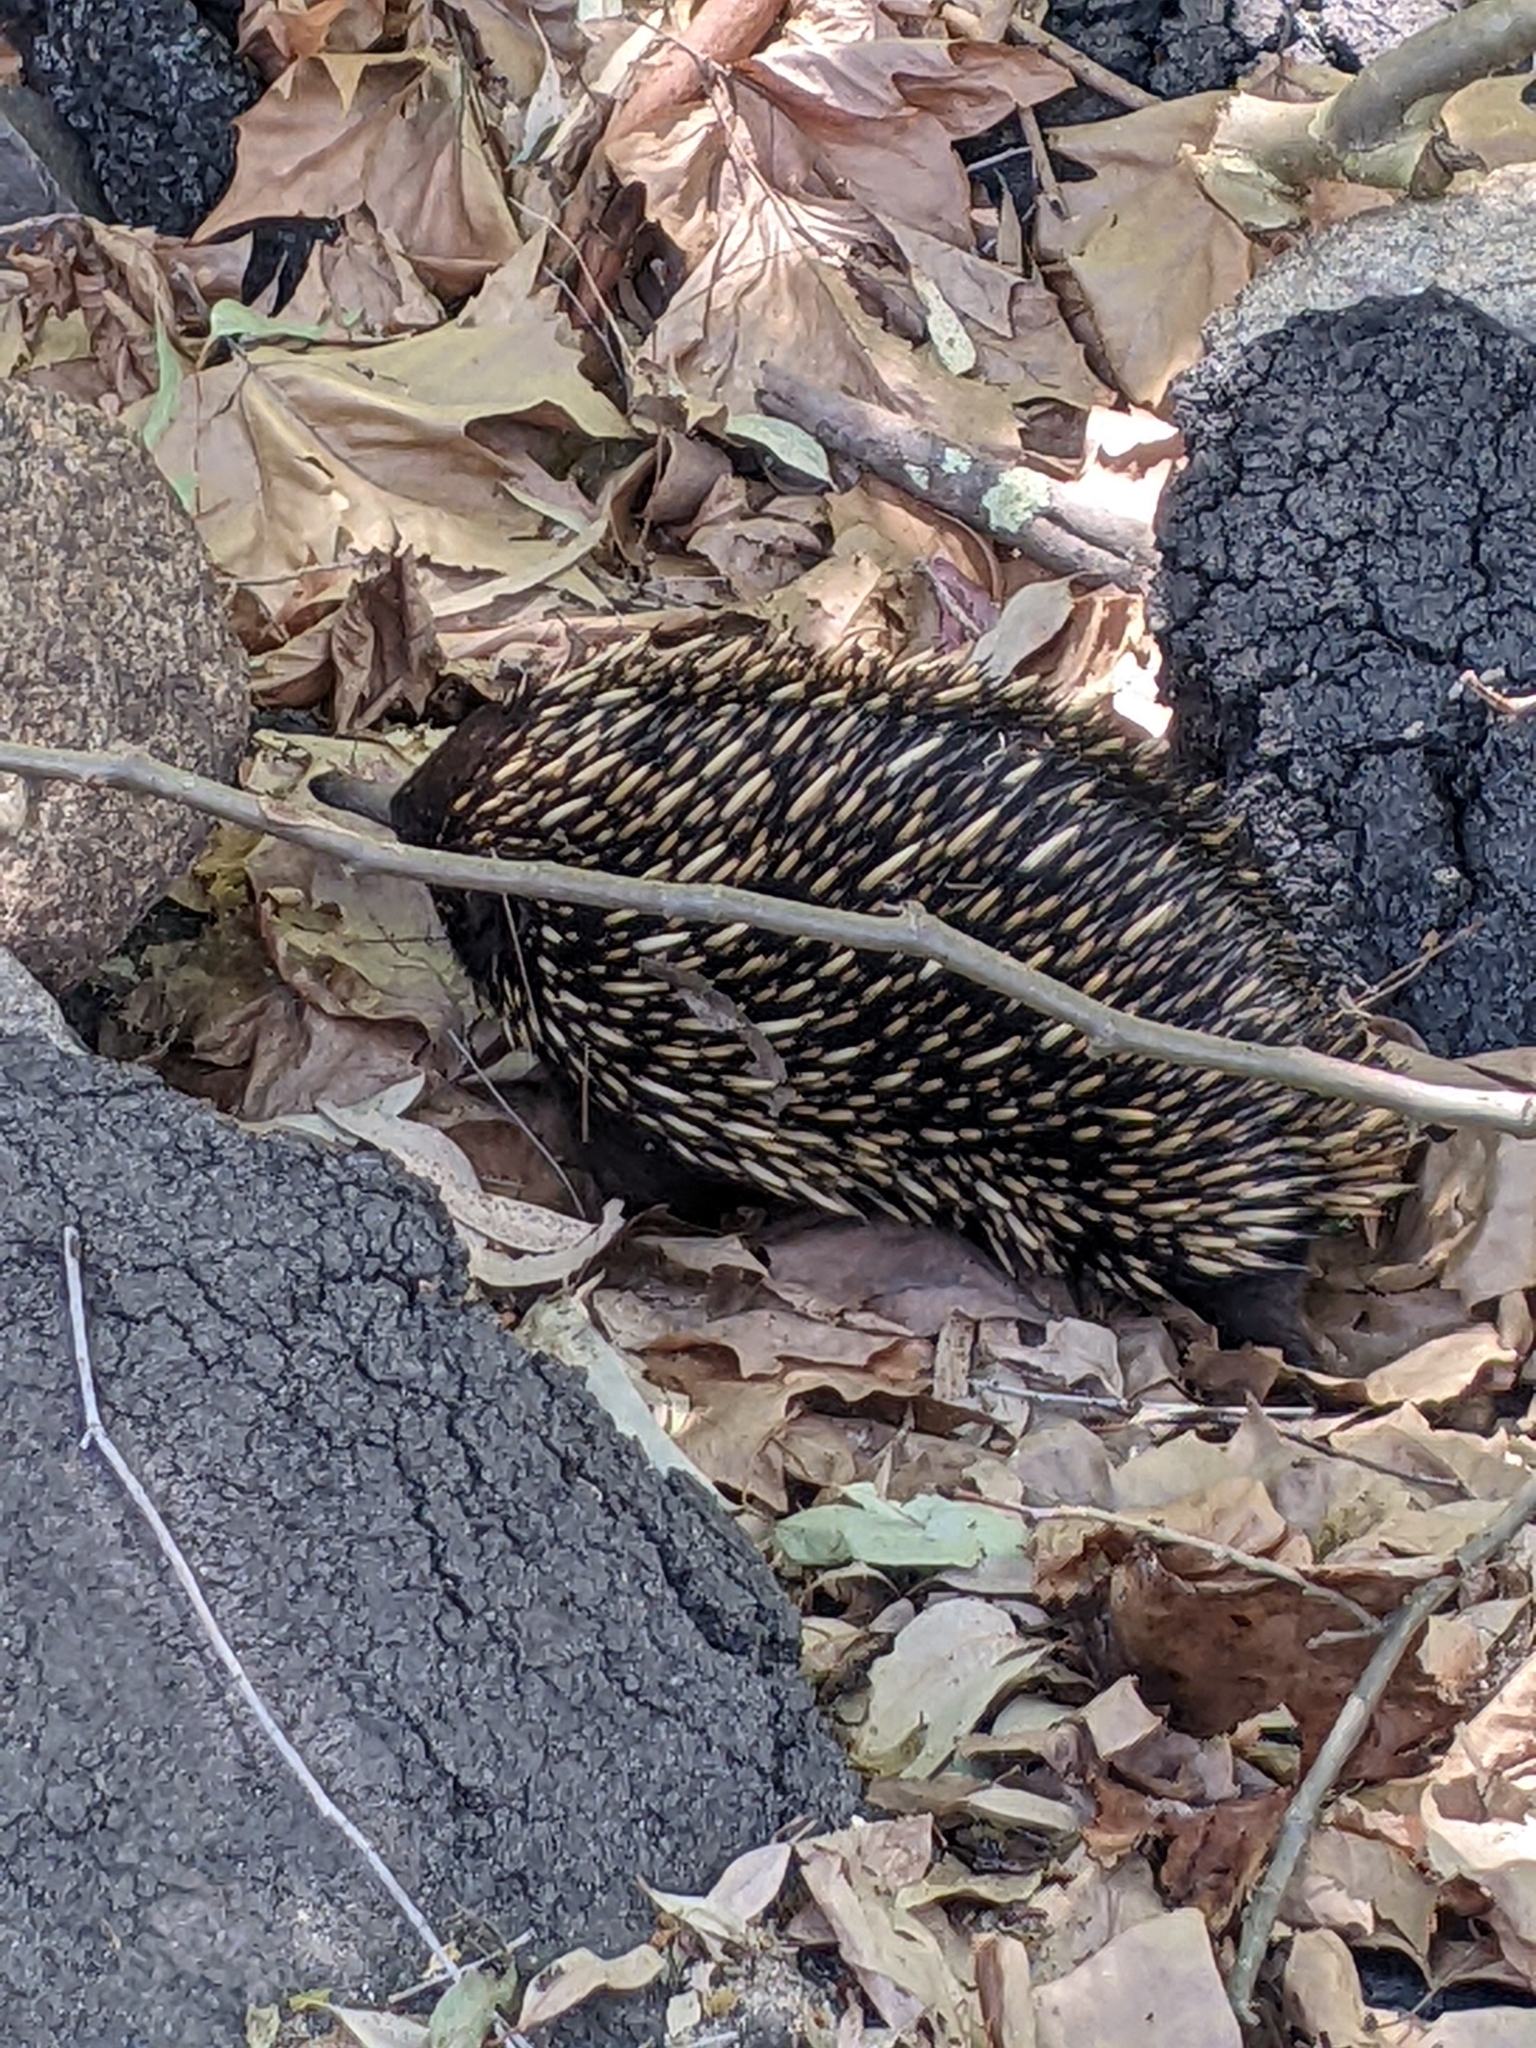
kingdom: Animalia
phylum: Chordata
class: Mammalia
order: Monotremata
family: Tachyglossidae
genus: Tachyglossus
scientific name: Tachyglossus aculeatus
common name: Short-beaked echidna
